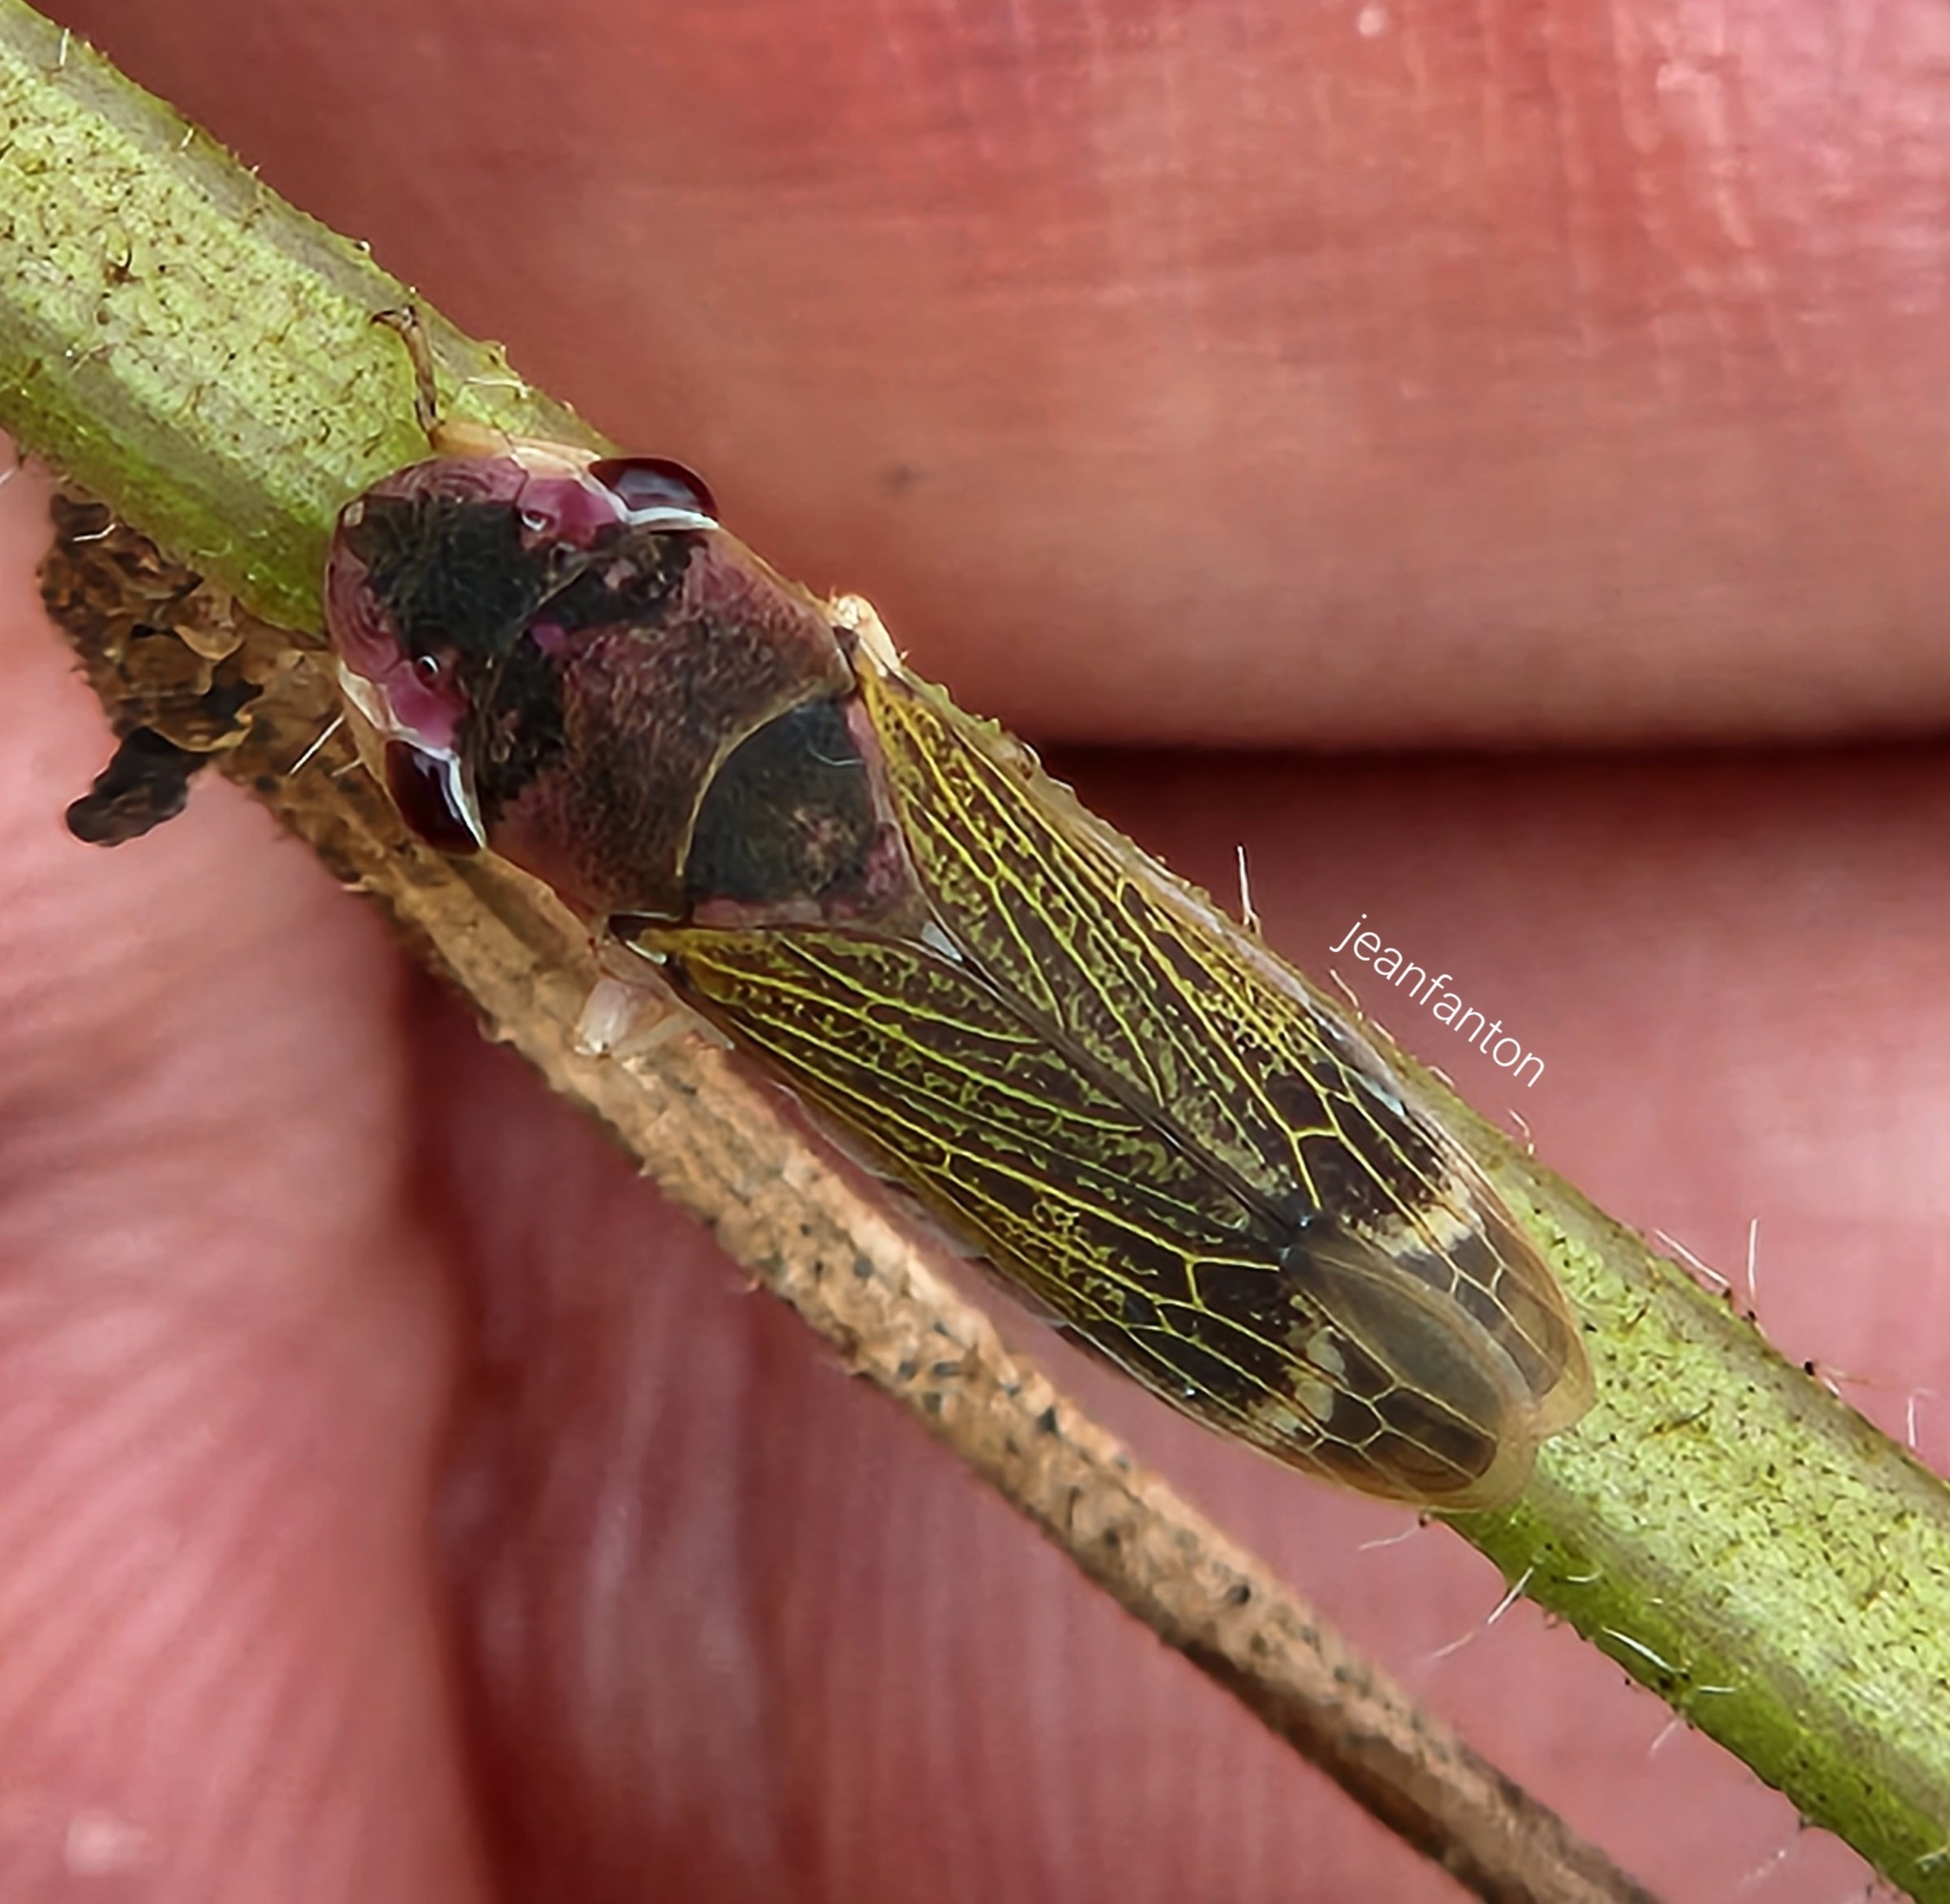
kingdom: Animalia
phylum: Arthropoda
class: Insecta
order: Hemiptera
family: Cicadellidae
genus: Oncometopia
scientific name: Oncometopia facialis
